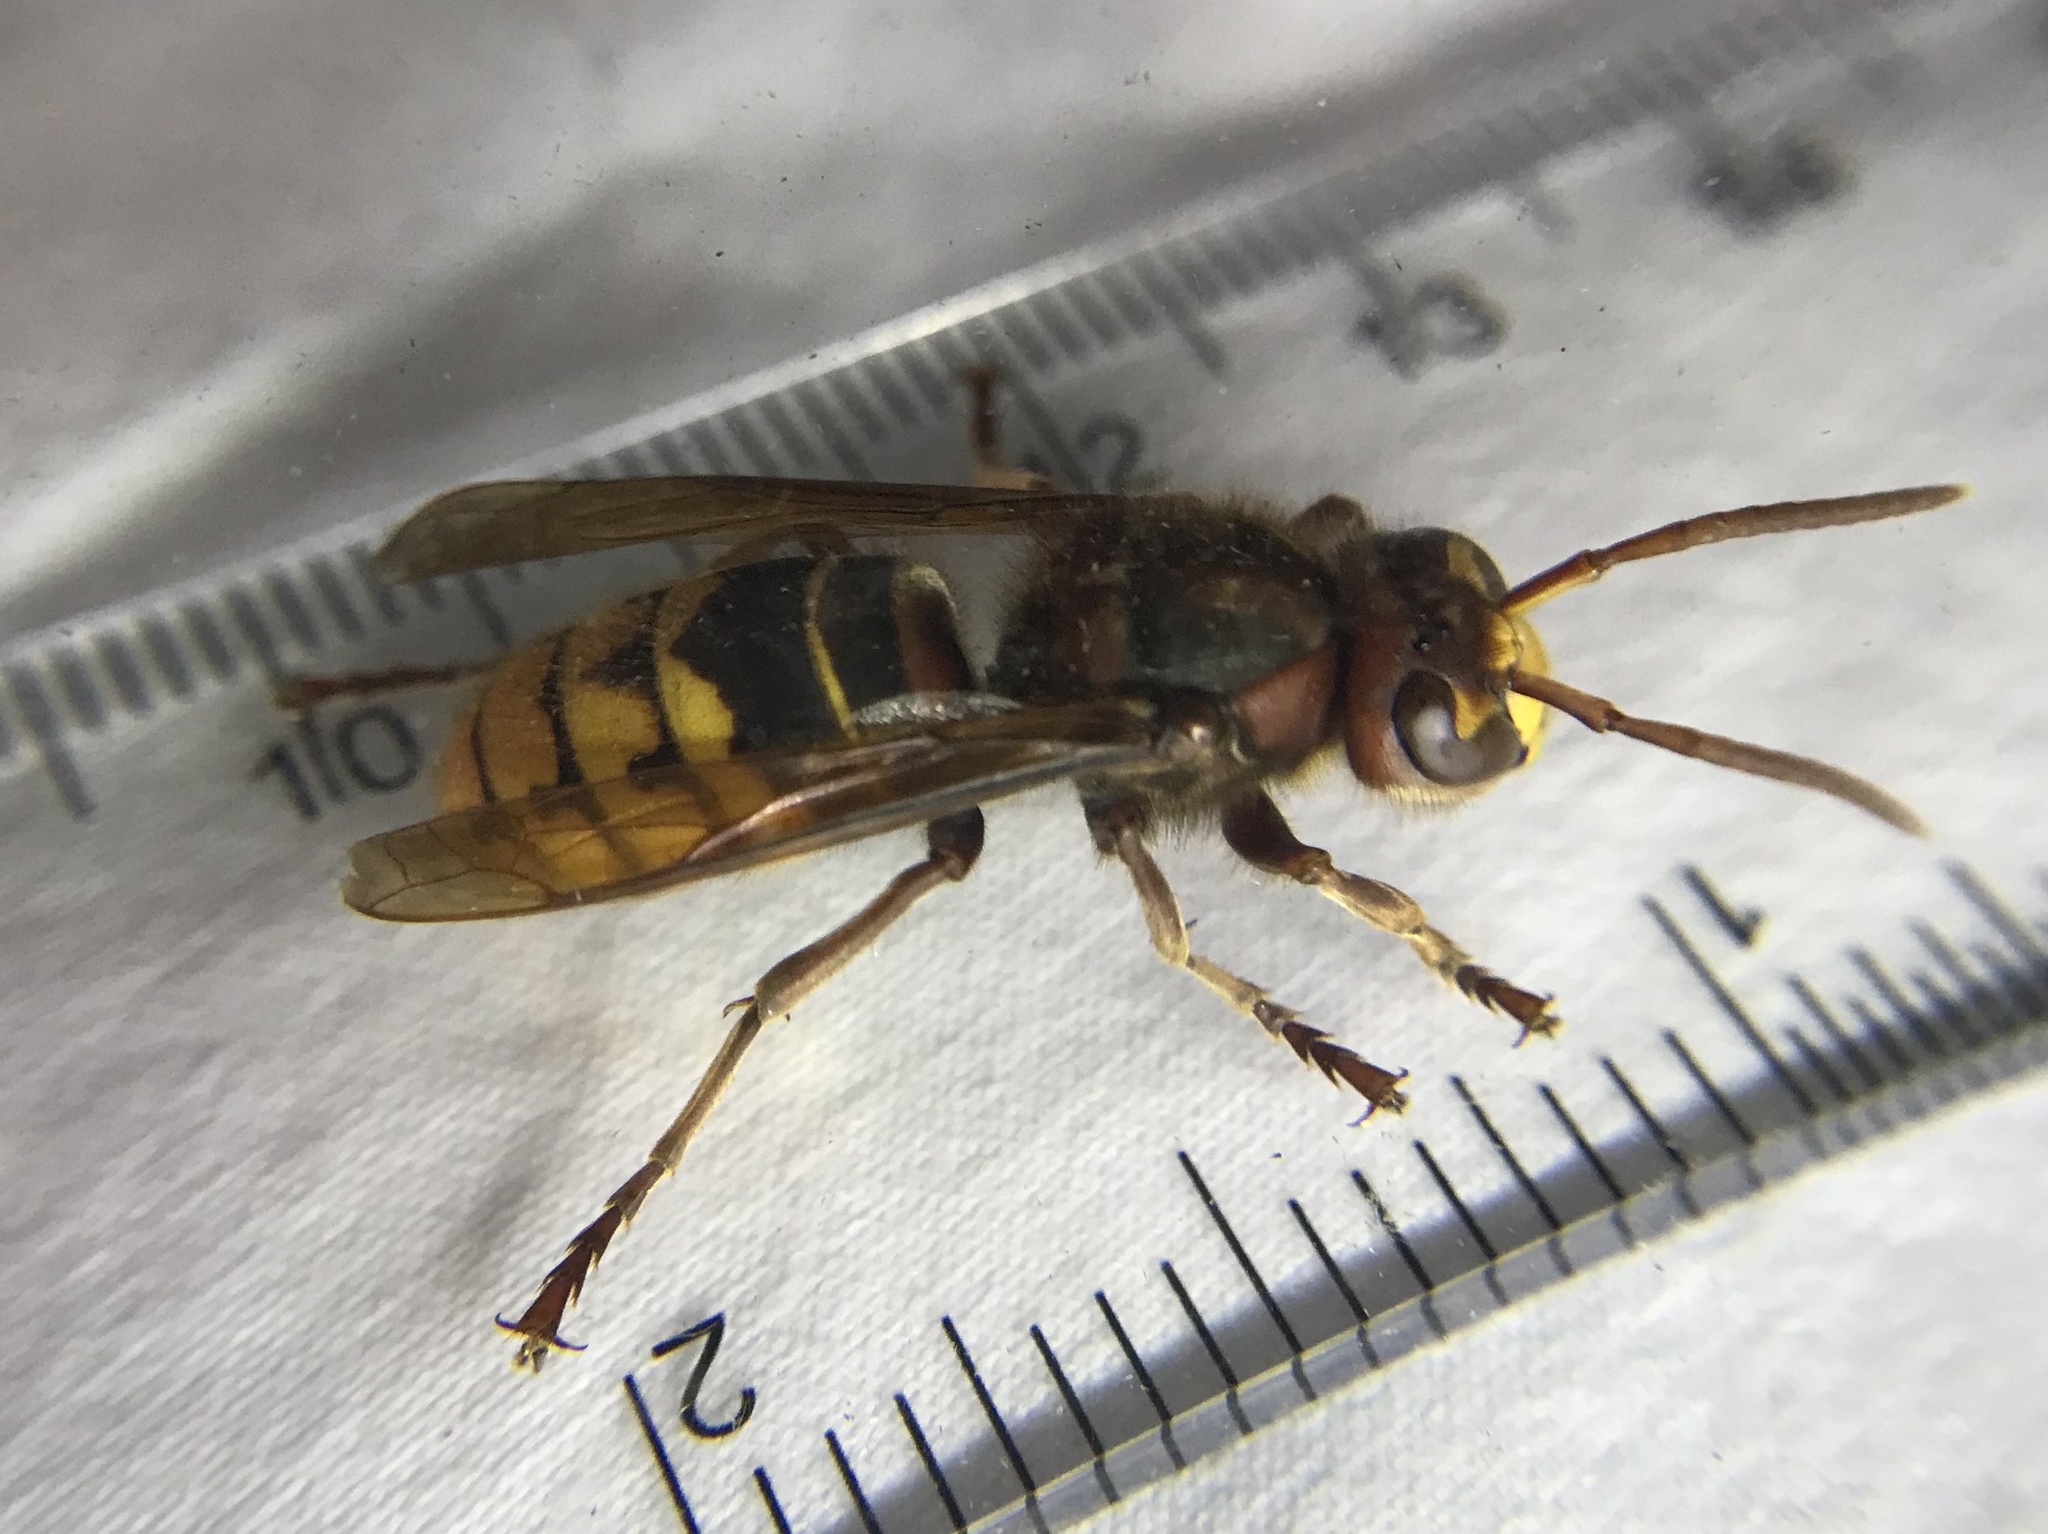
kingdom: Animalia
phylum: Arthropoda
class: Insecta
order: Hymenoptera
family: Vespidae
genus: Vespa
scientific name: Vespa crabro
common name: Hornet
